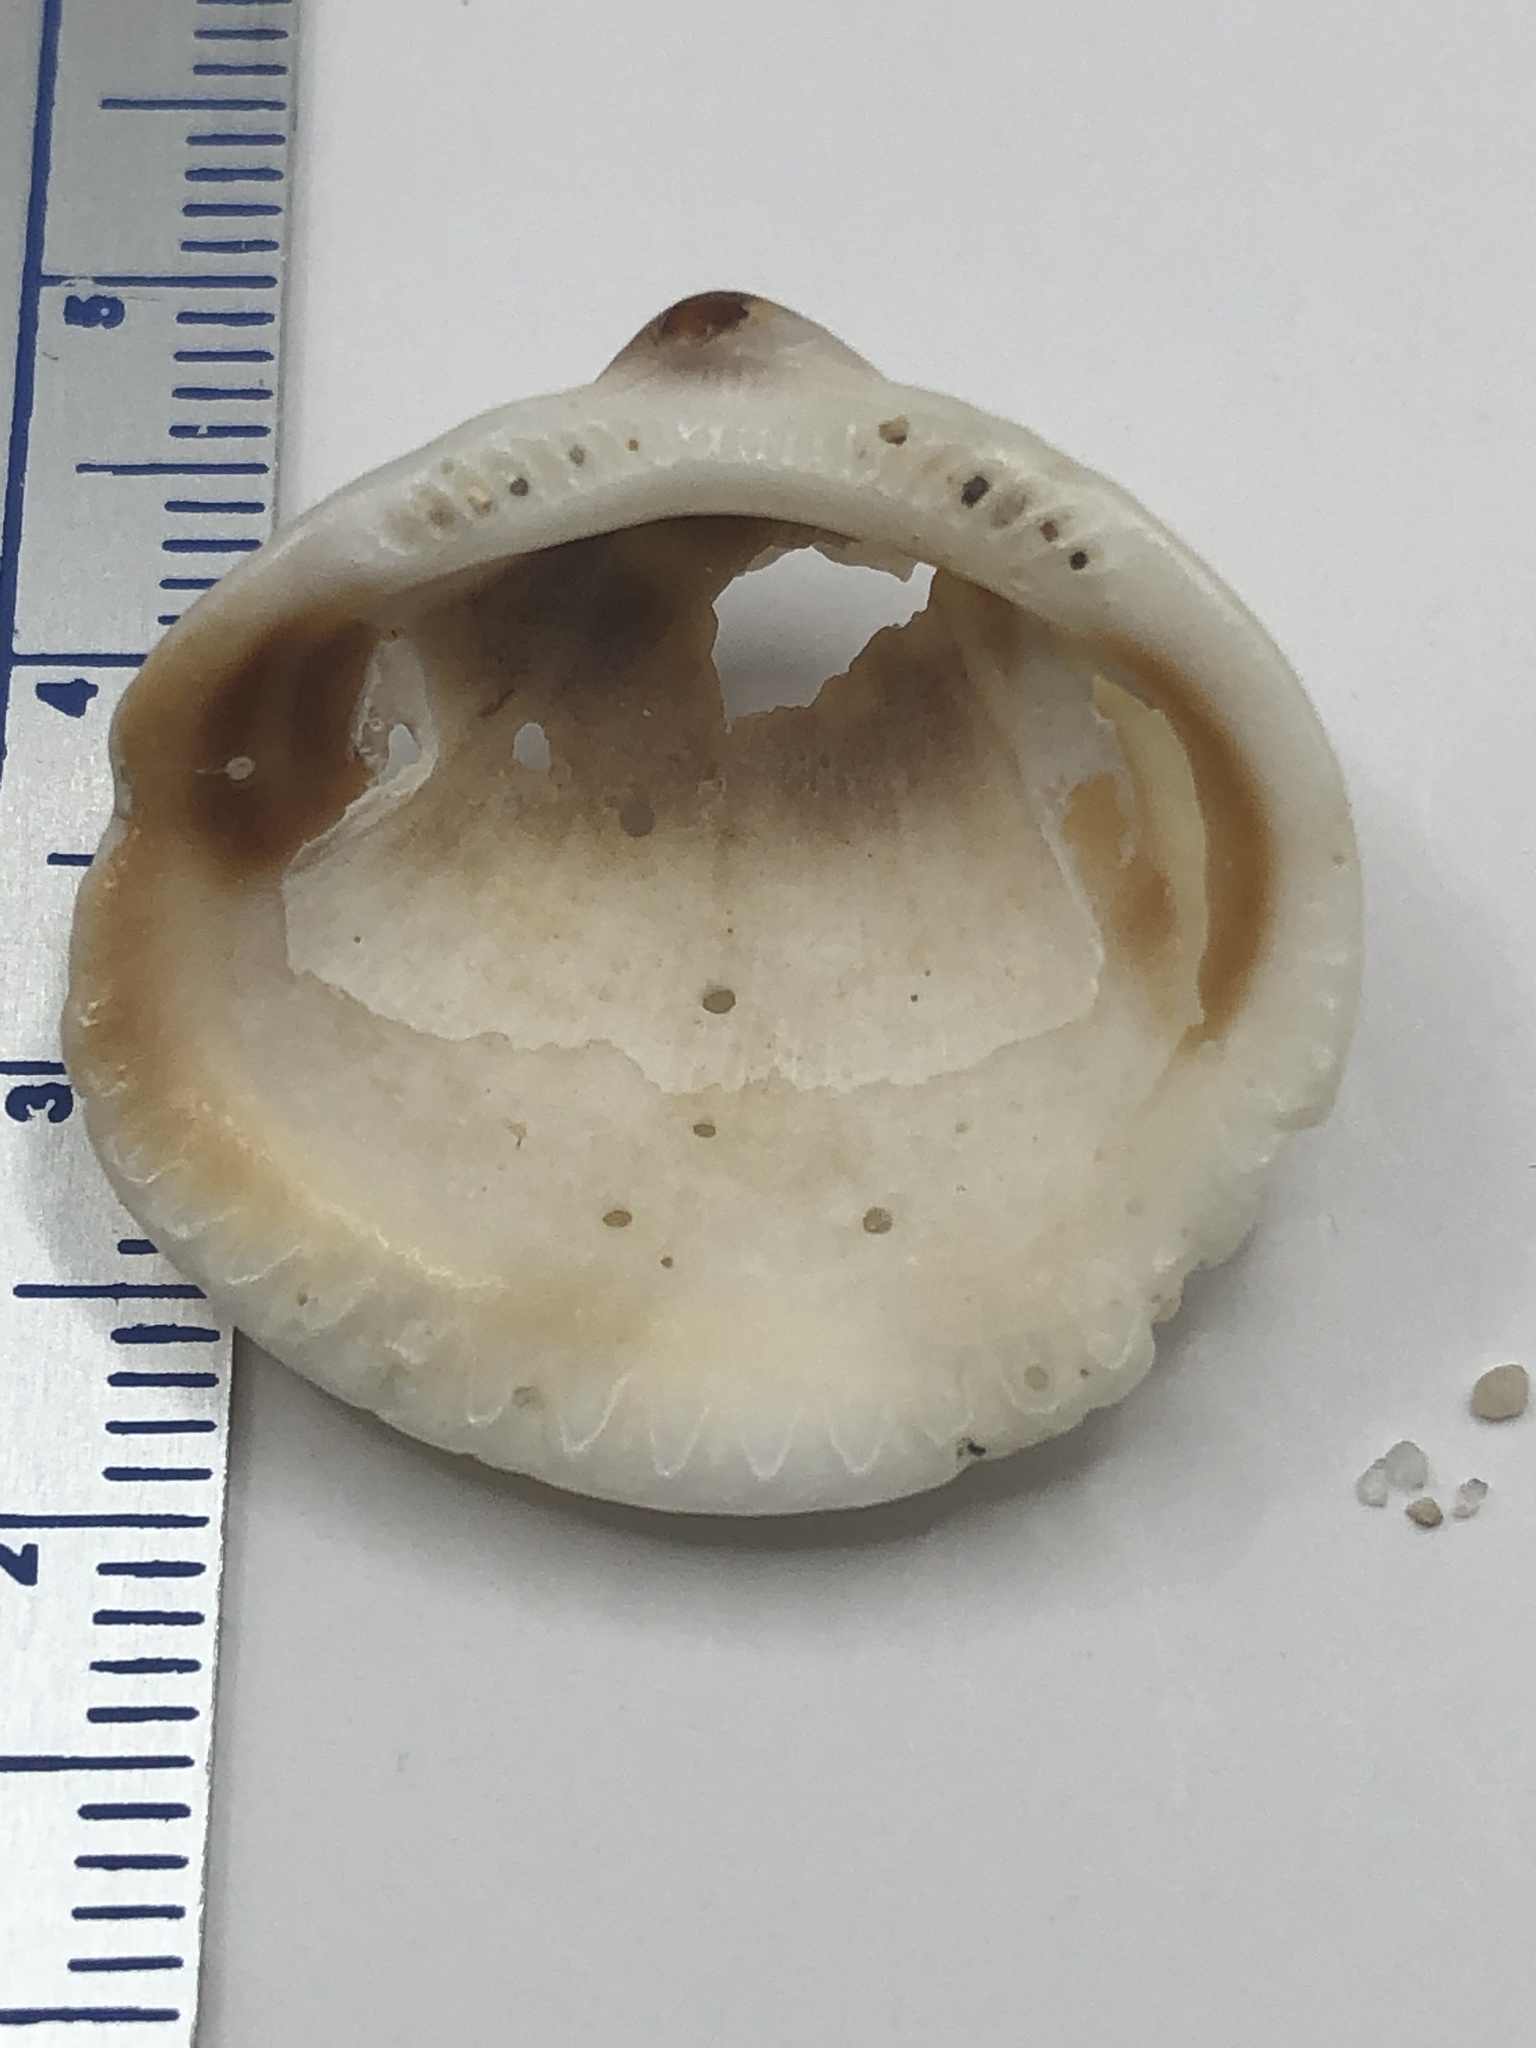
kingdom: Animalia
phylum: Mollusca
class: Bivalvia
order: Arcida
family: Glycymerididae
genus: Glycymeris
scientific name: Glycymeris spectralis
